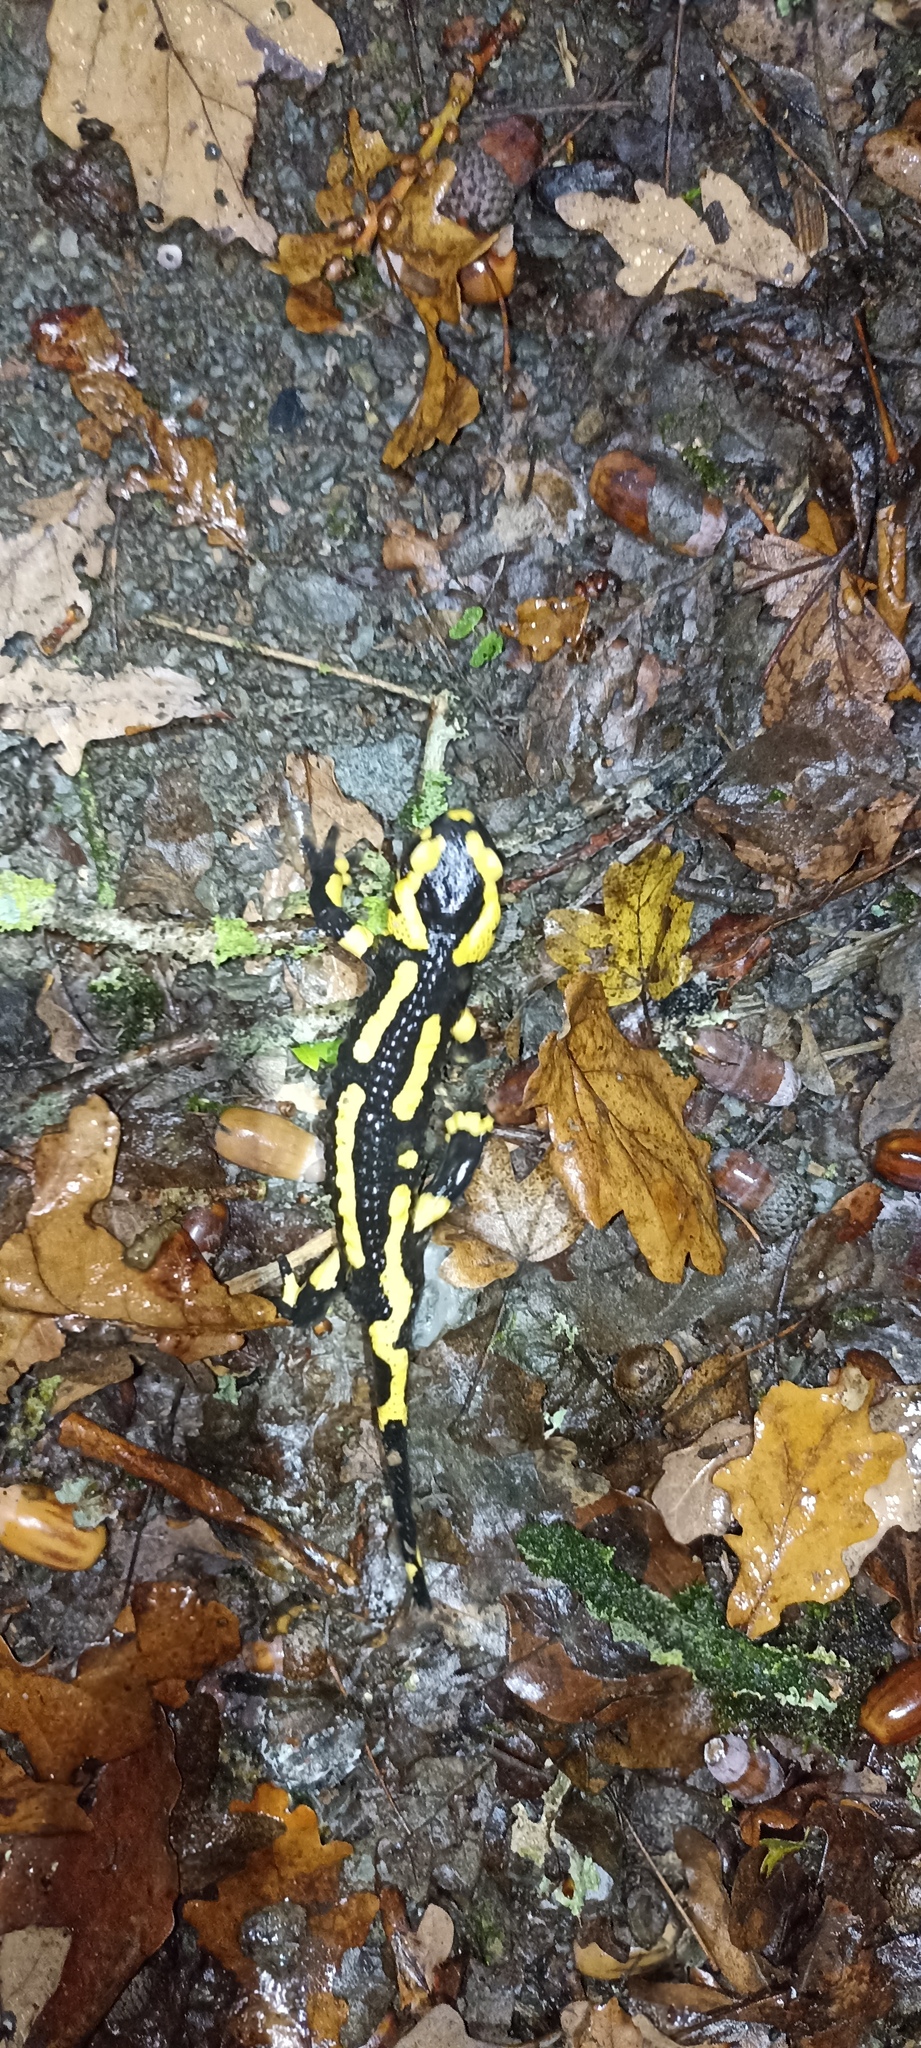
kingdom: Animalia
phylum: Chordata
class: Amphibia
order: Caudata
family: Salamandridae
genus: Salamandra
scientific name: Salamandra salamandra
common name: Fire salamander
